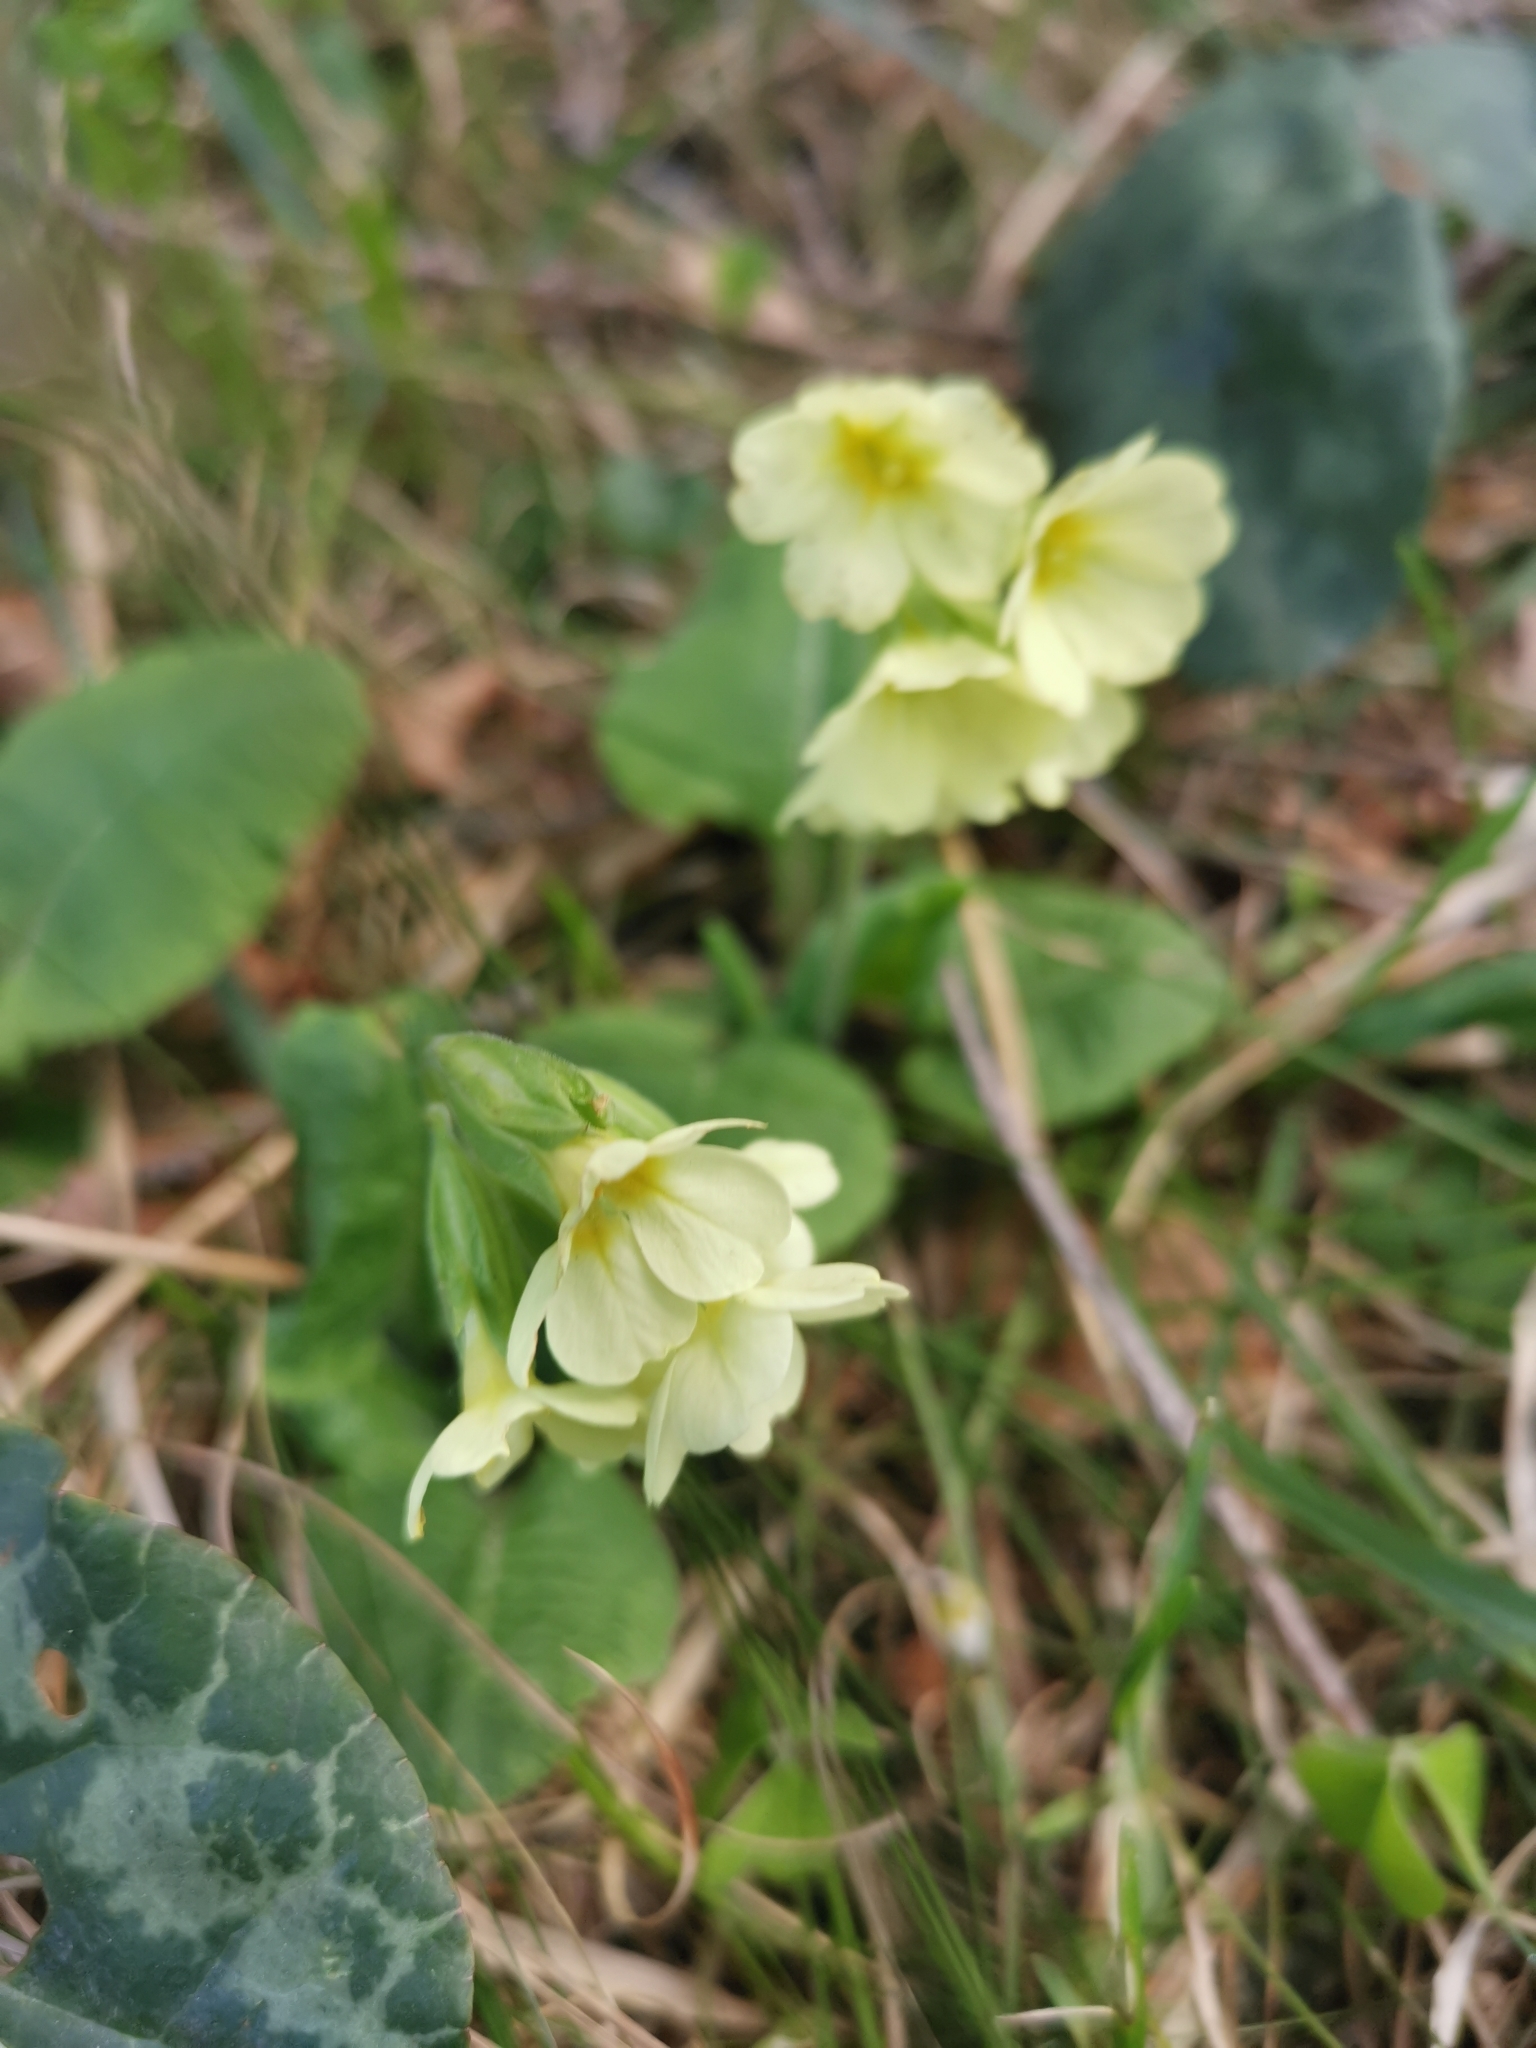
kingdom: Plantae
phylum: Tracheophyta
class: Magnoliopsida
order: Ericales
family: Primulaceae
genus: Primula
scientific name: Primula elatior
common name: Oxlip
